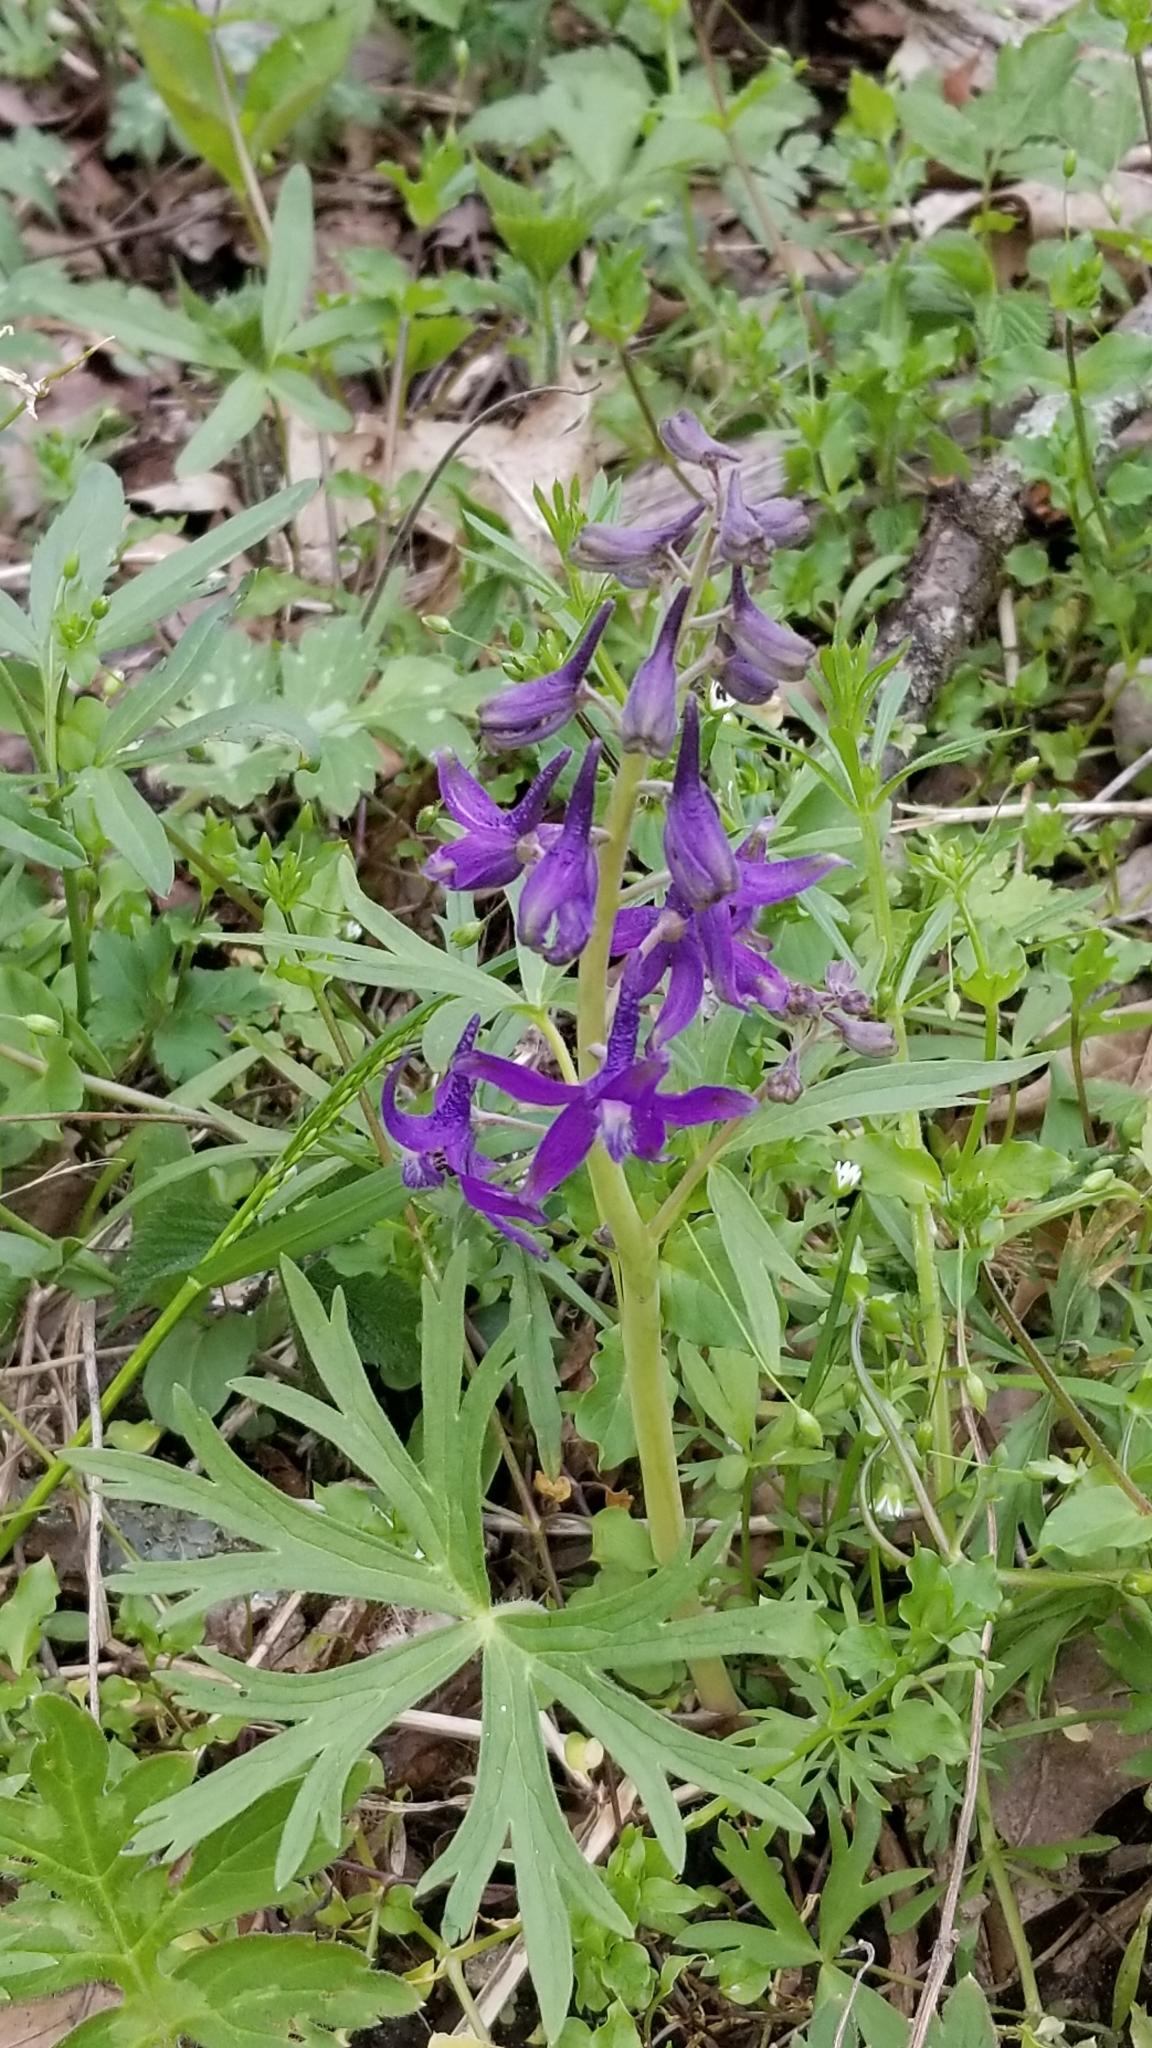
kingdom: Plantae
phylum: Tracheophyta
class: Magnoliopsida
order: Ranunculales
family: Ranunculaceae
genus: Delphinium
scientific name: Delphinium tricorne
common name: Dwarf larkspur
